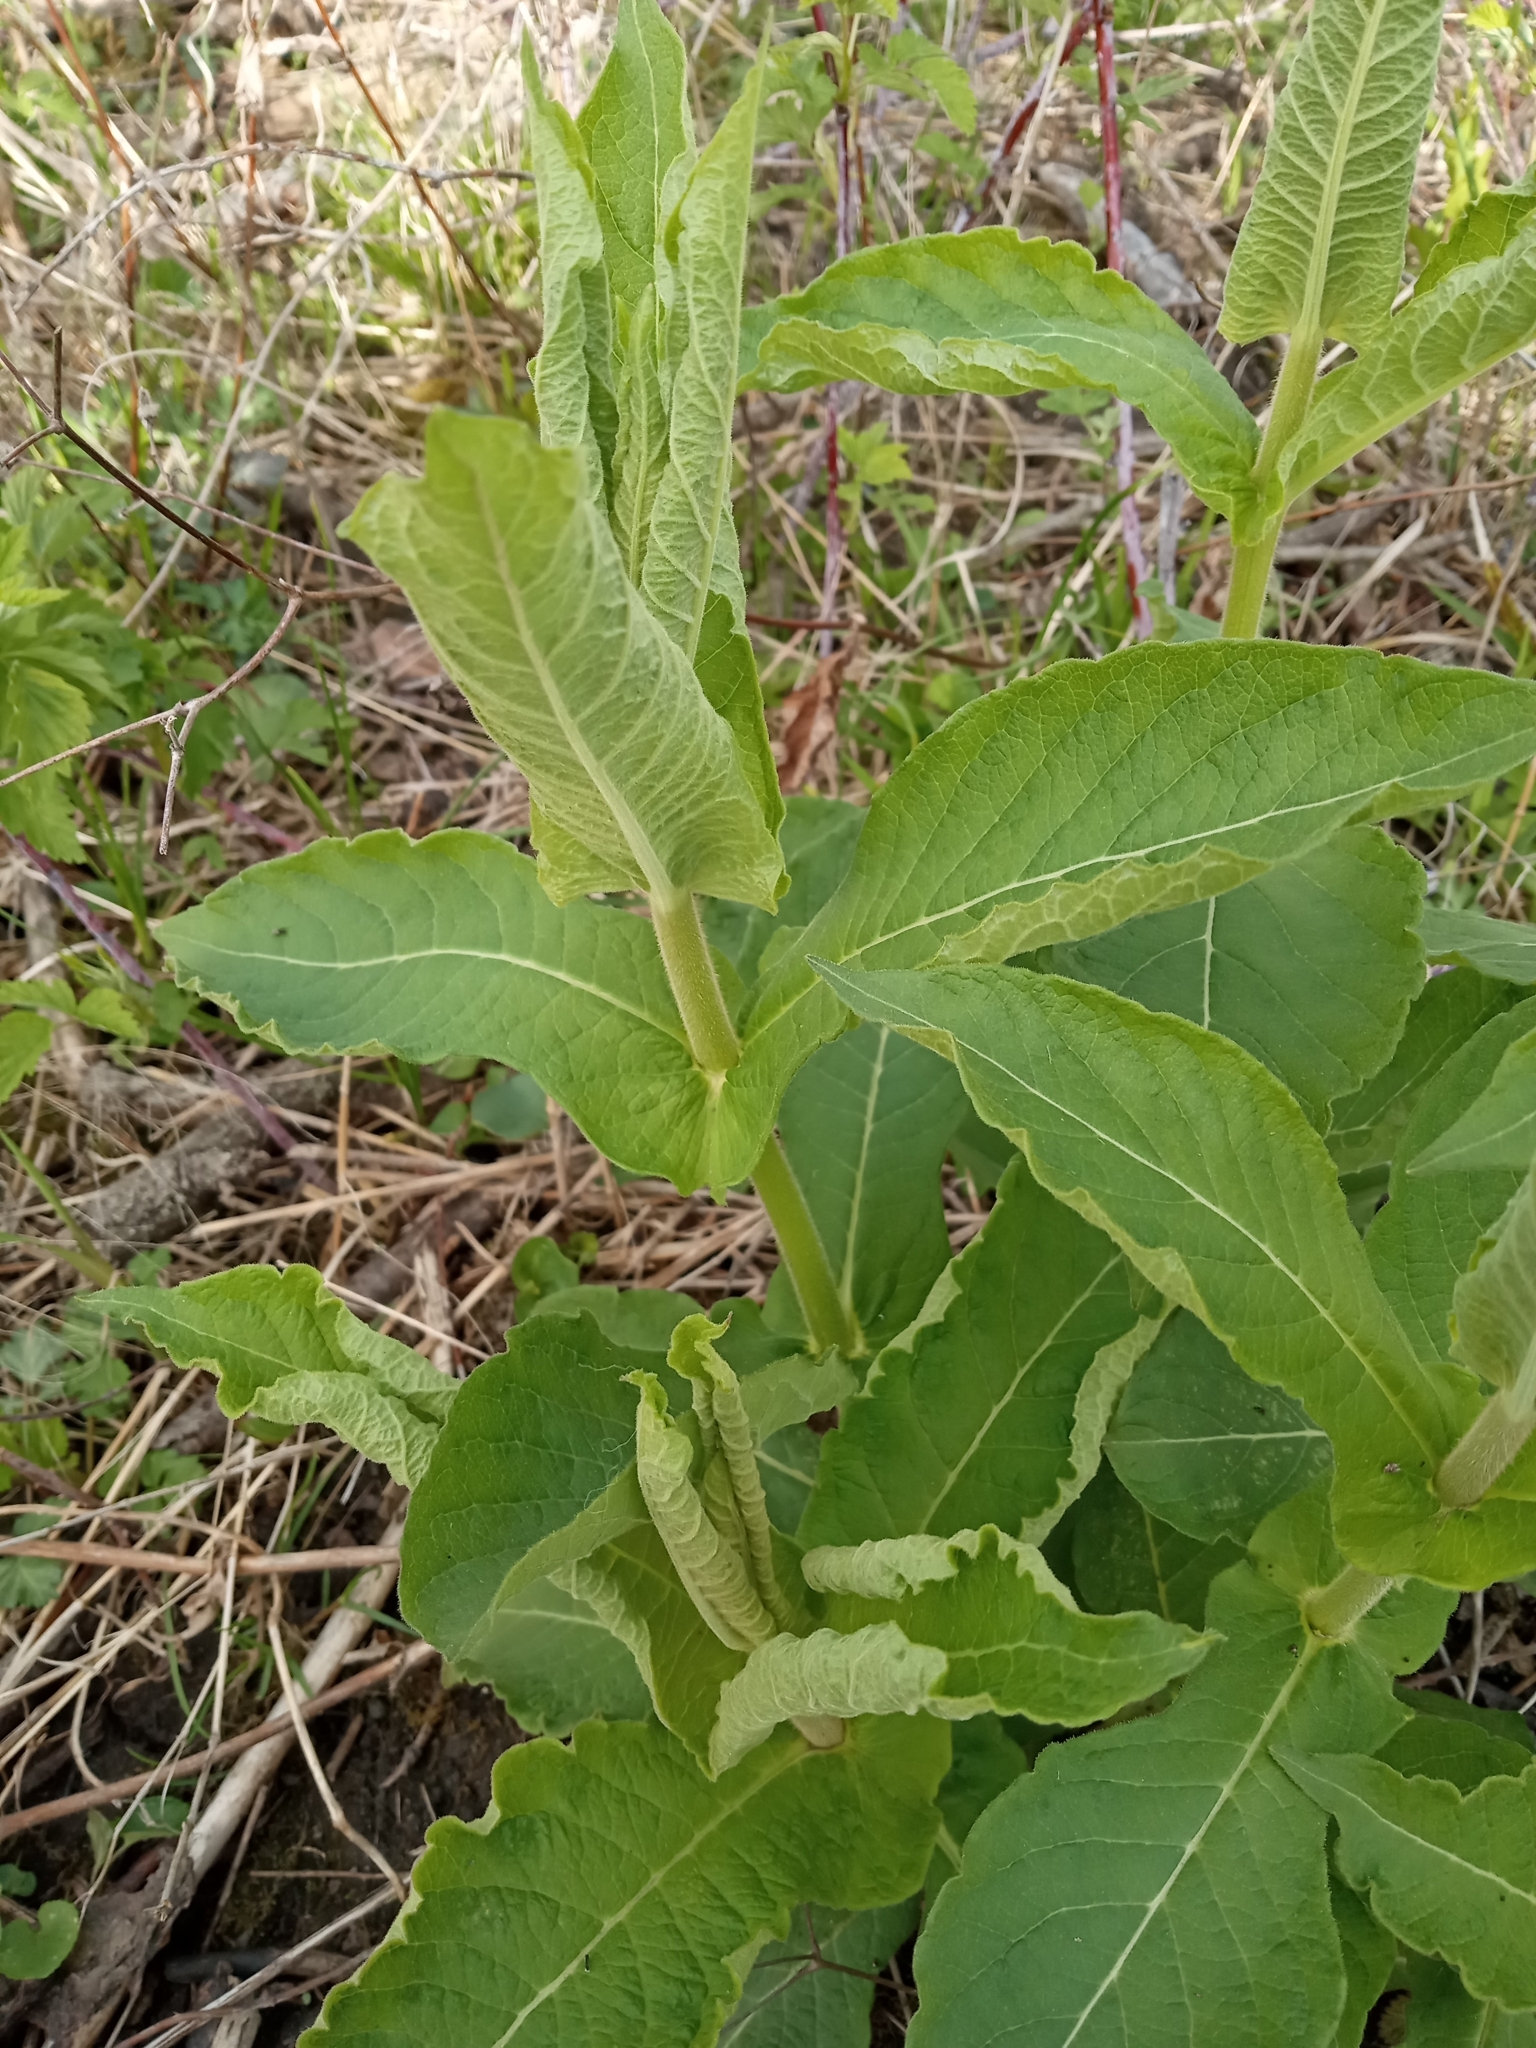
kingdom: Plantae
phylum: Tracheophyta
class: Magnoliopsida
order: Dipsacales
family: Caprifoliaceae
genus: Triosteum
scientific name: Triosteum perfoliatum
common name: Common horse-gentian
